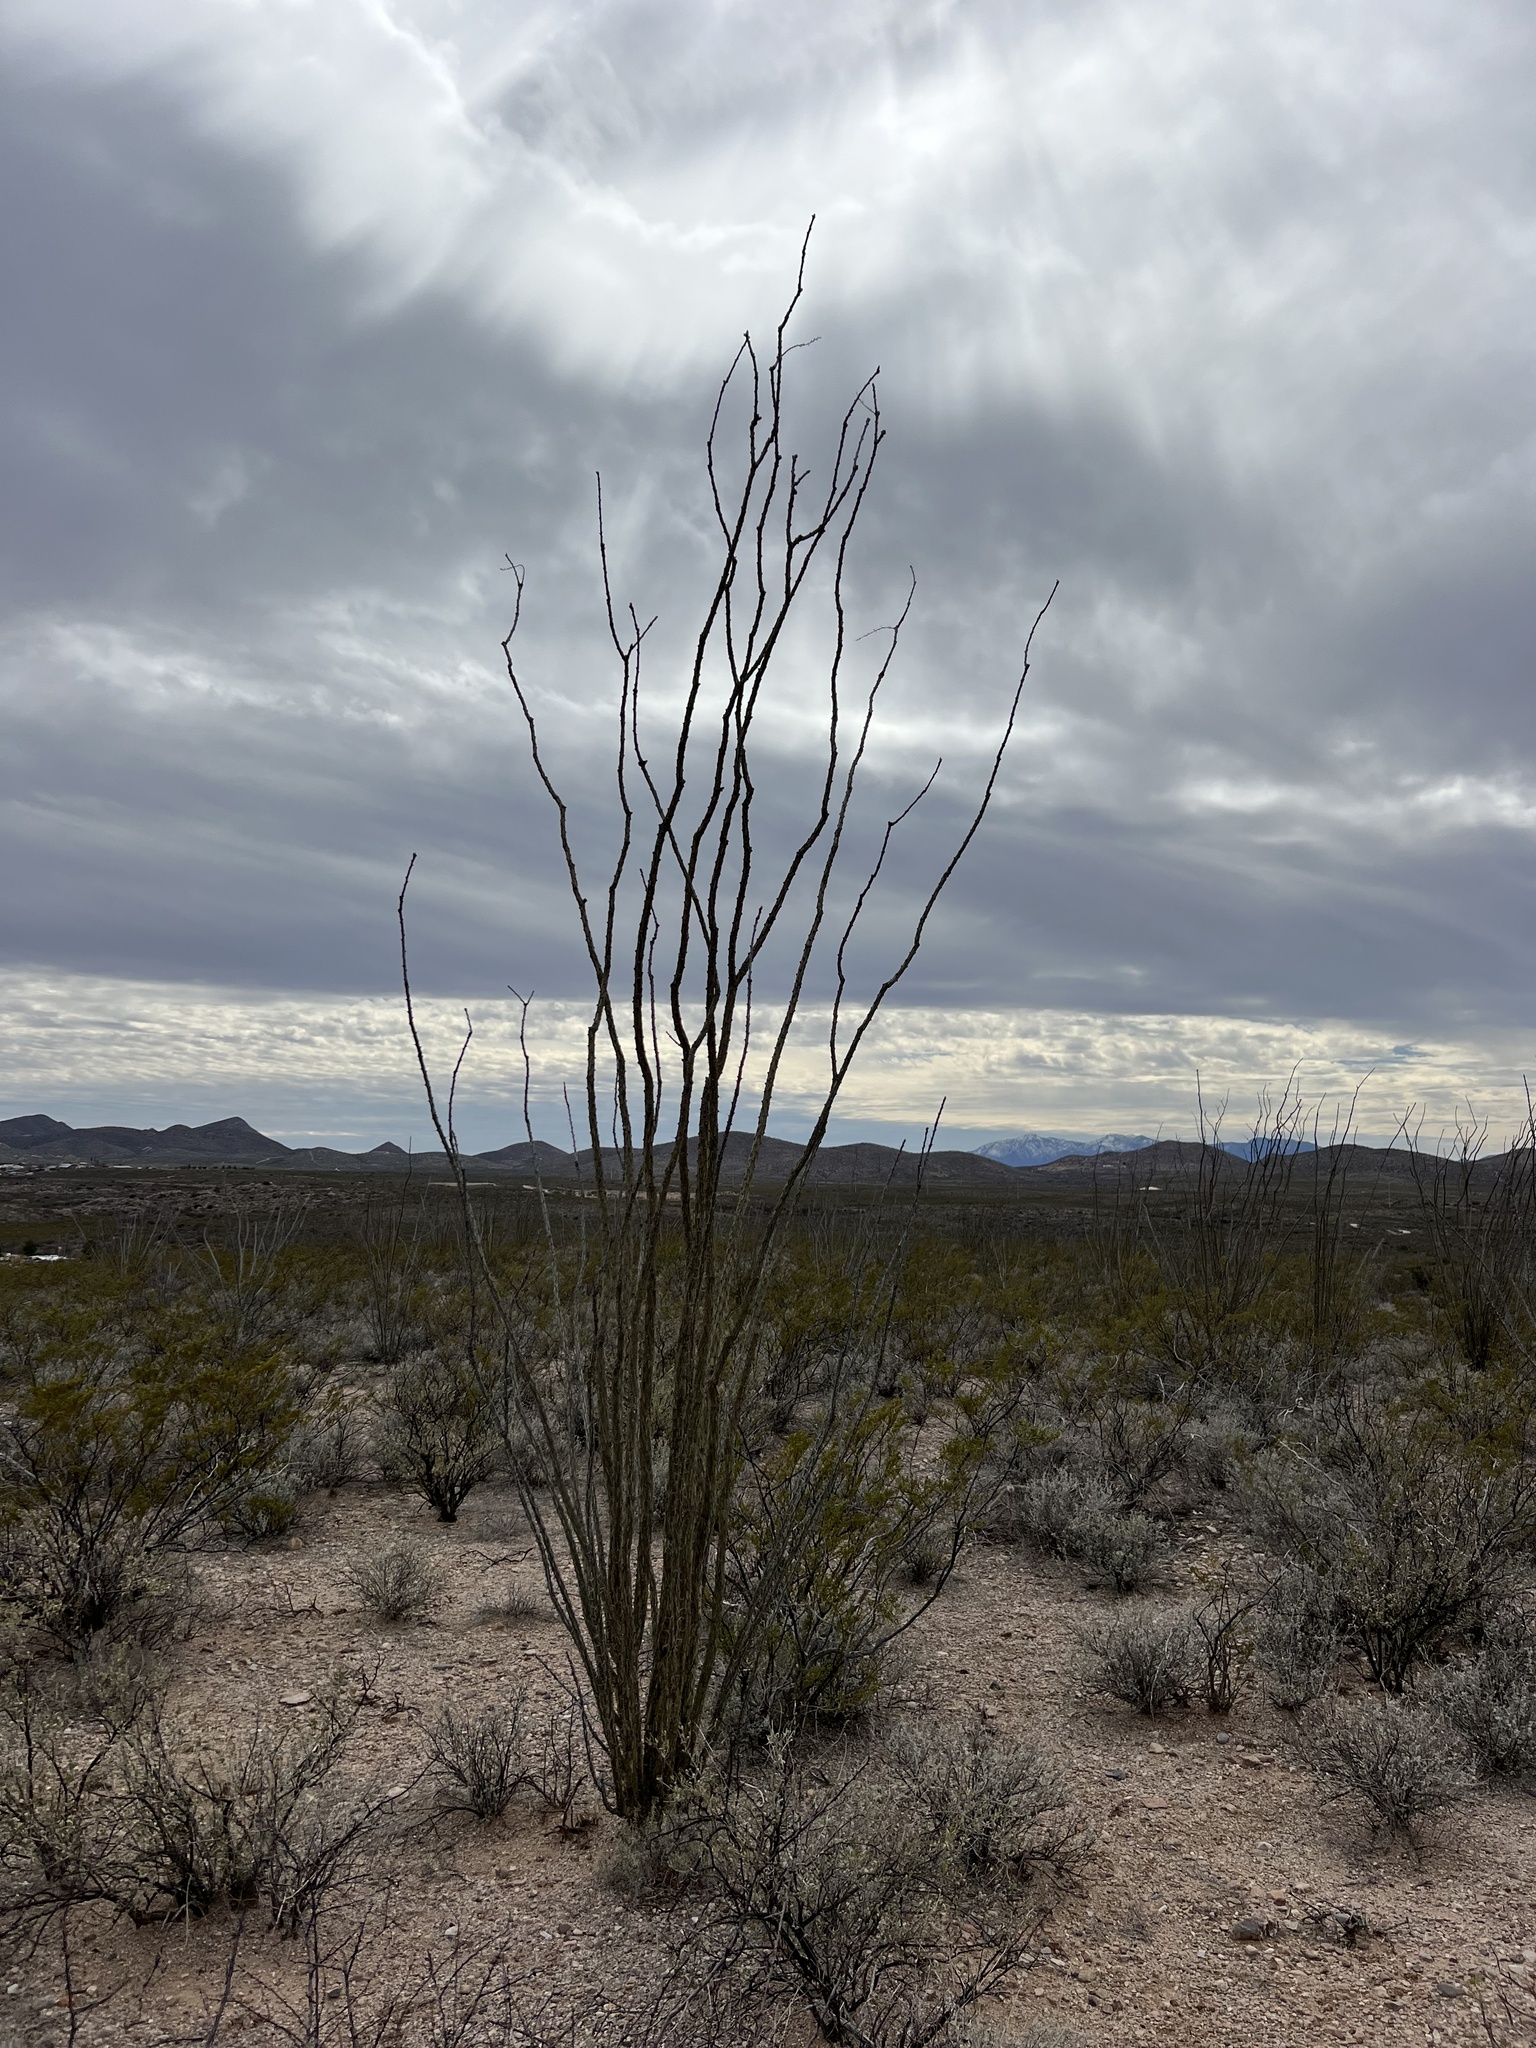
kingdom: Plantae
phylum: Tracheophyta
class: Magnoliopsida
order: Ericales
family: Fouquieriaceae
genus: Fouquieria
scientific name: Fouquieria splendens
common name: Vine-cactus
